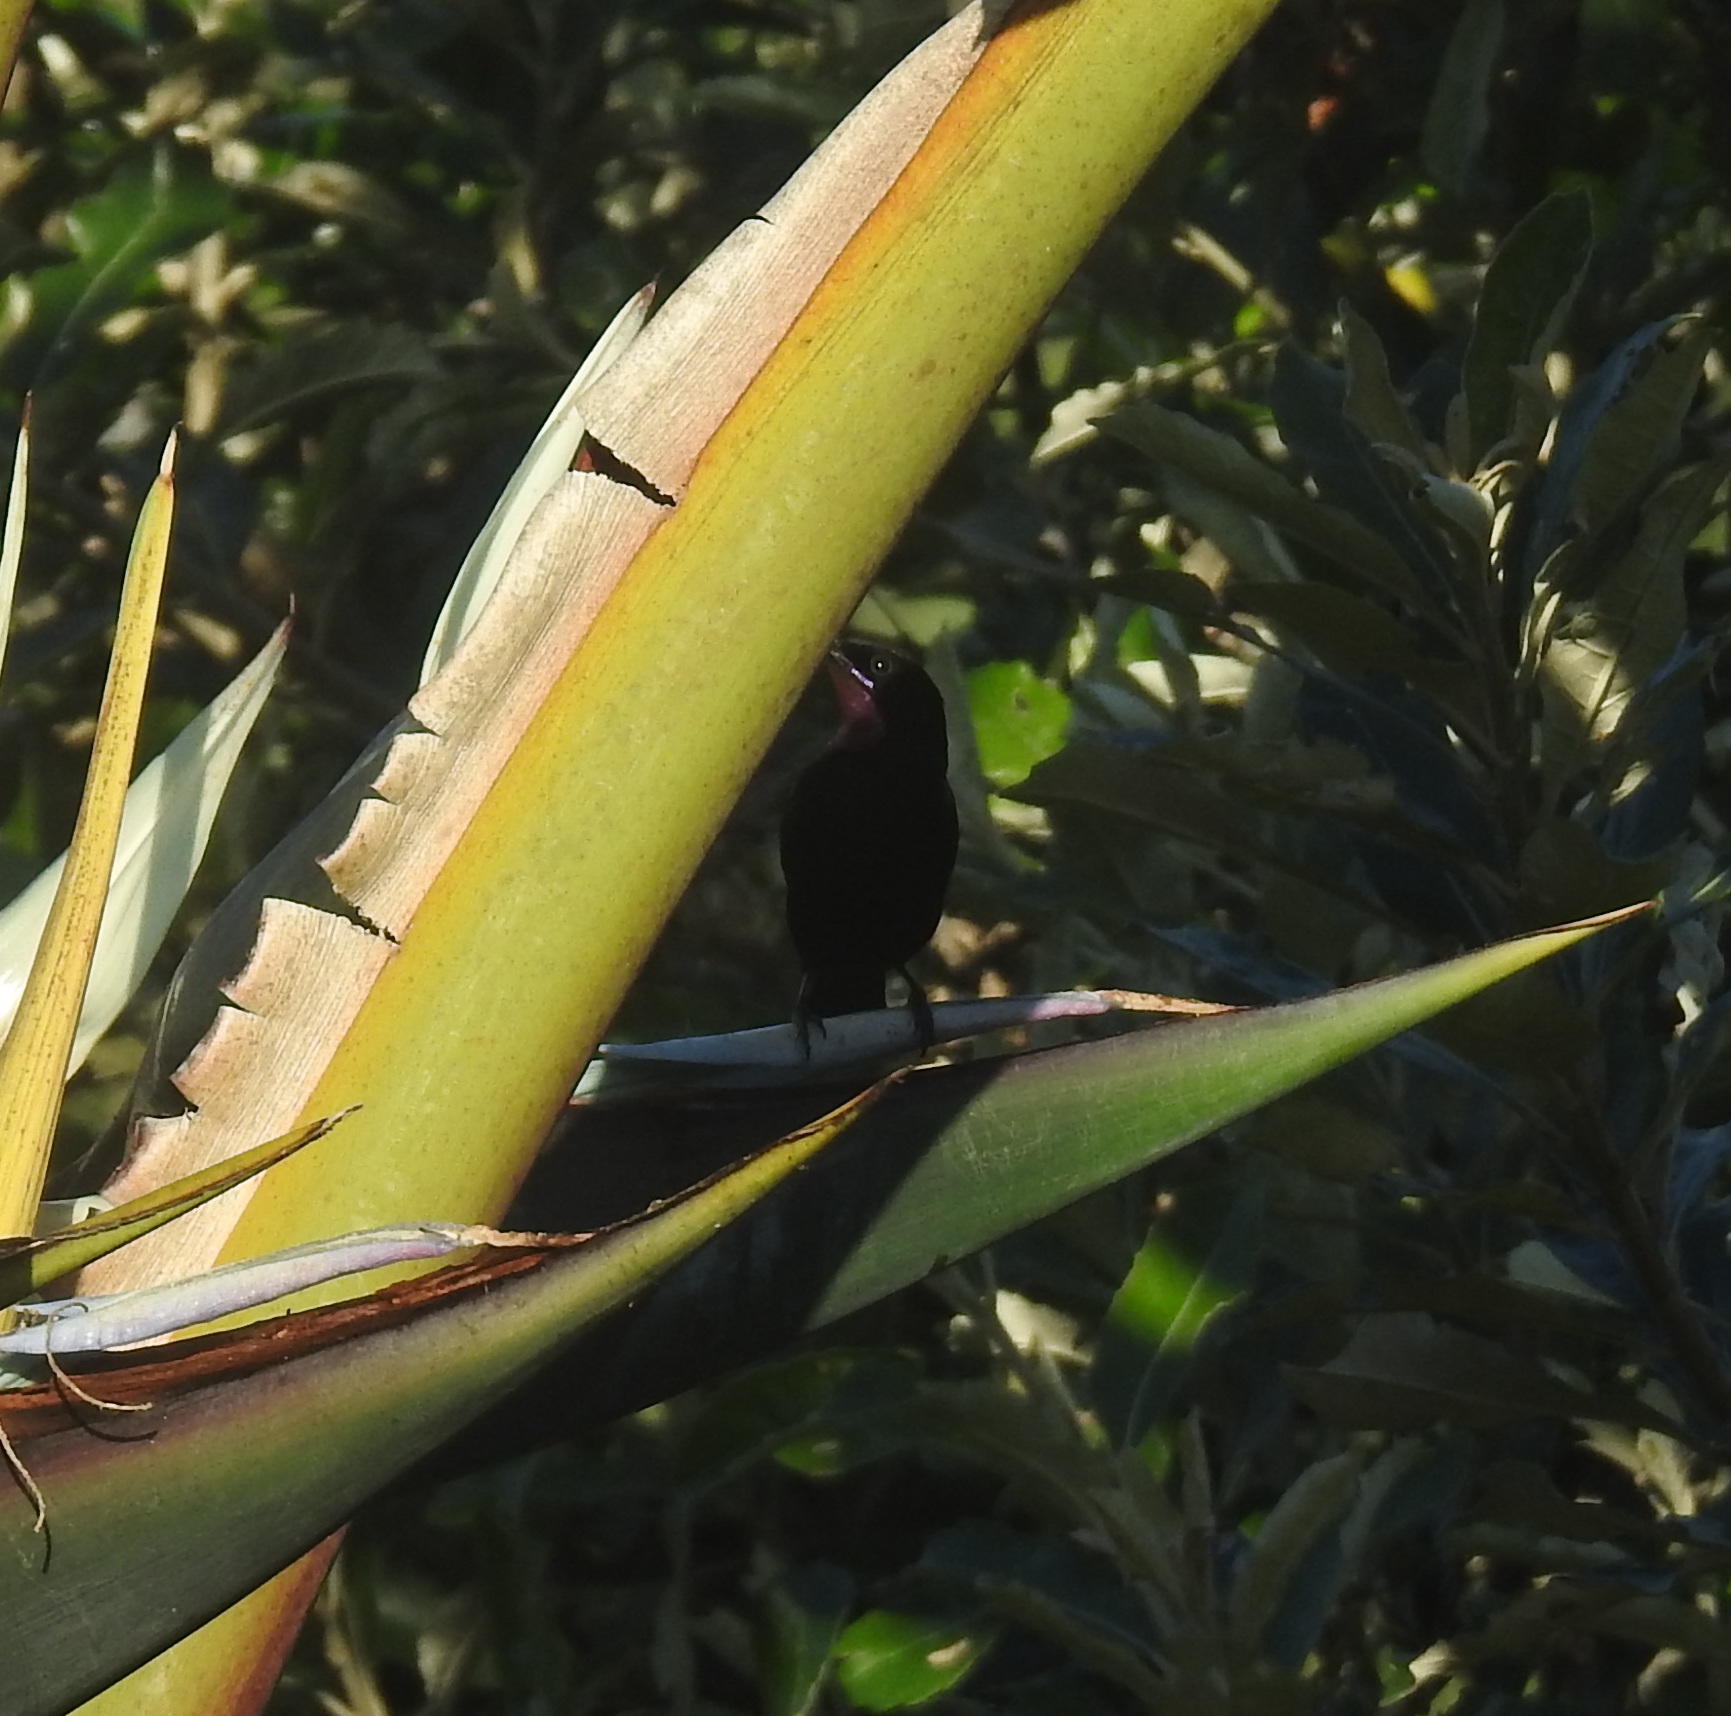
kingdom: Animalia
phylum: Chordata
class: Aves
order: Passeriformes
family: Nectariniidae
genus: Chalcomitra
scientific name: Chalcomitra amethystina
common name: Amethyst sunbird
